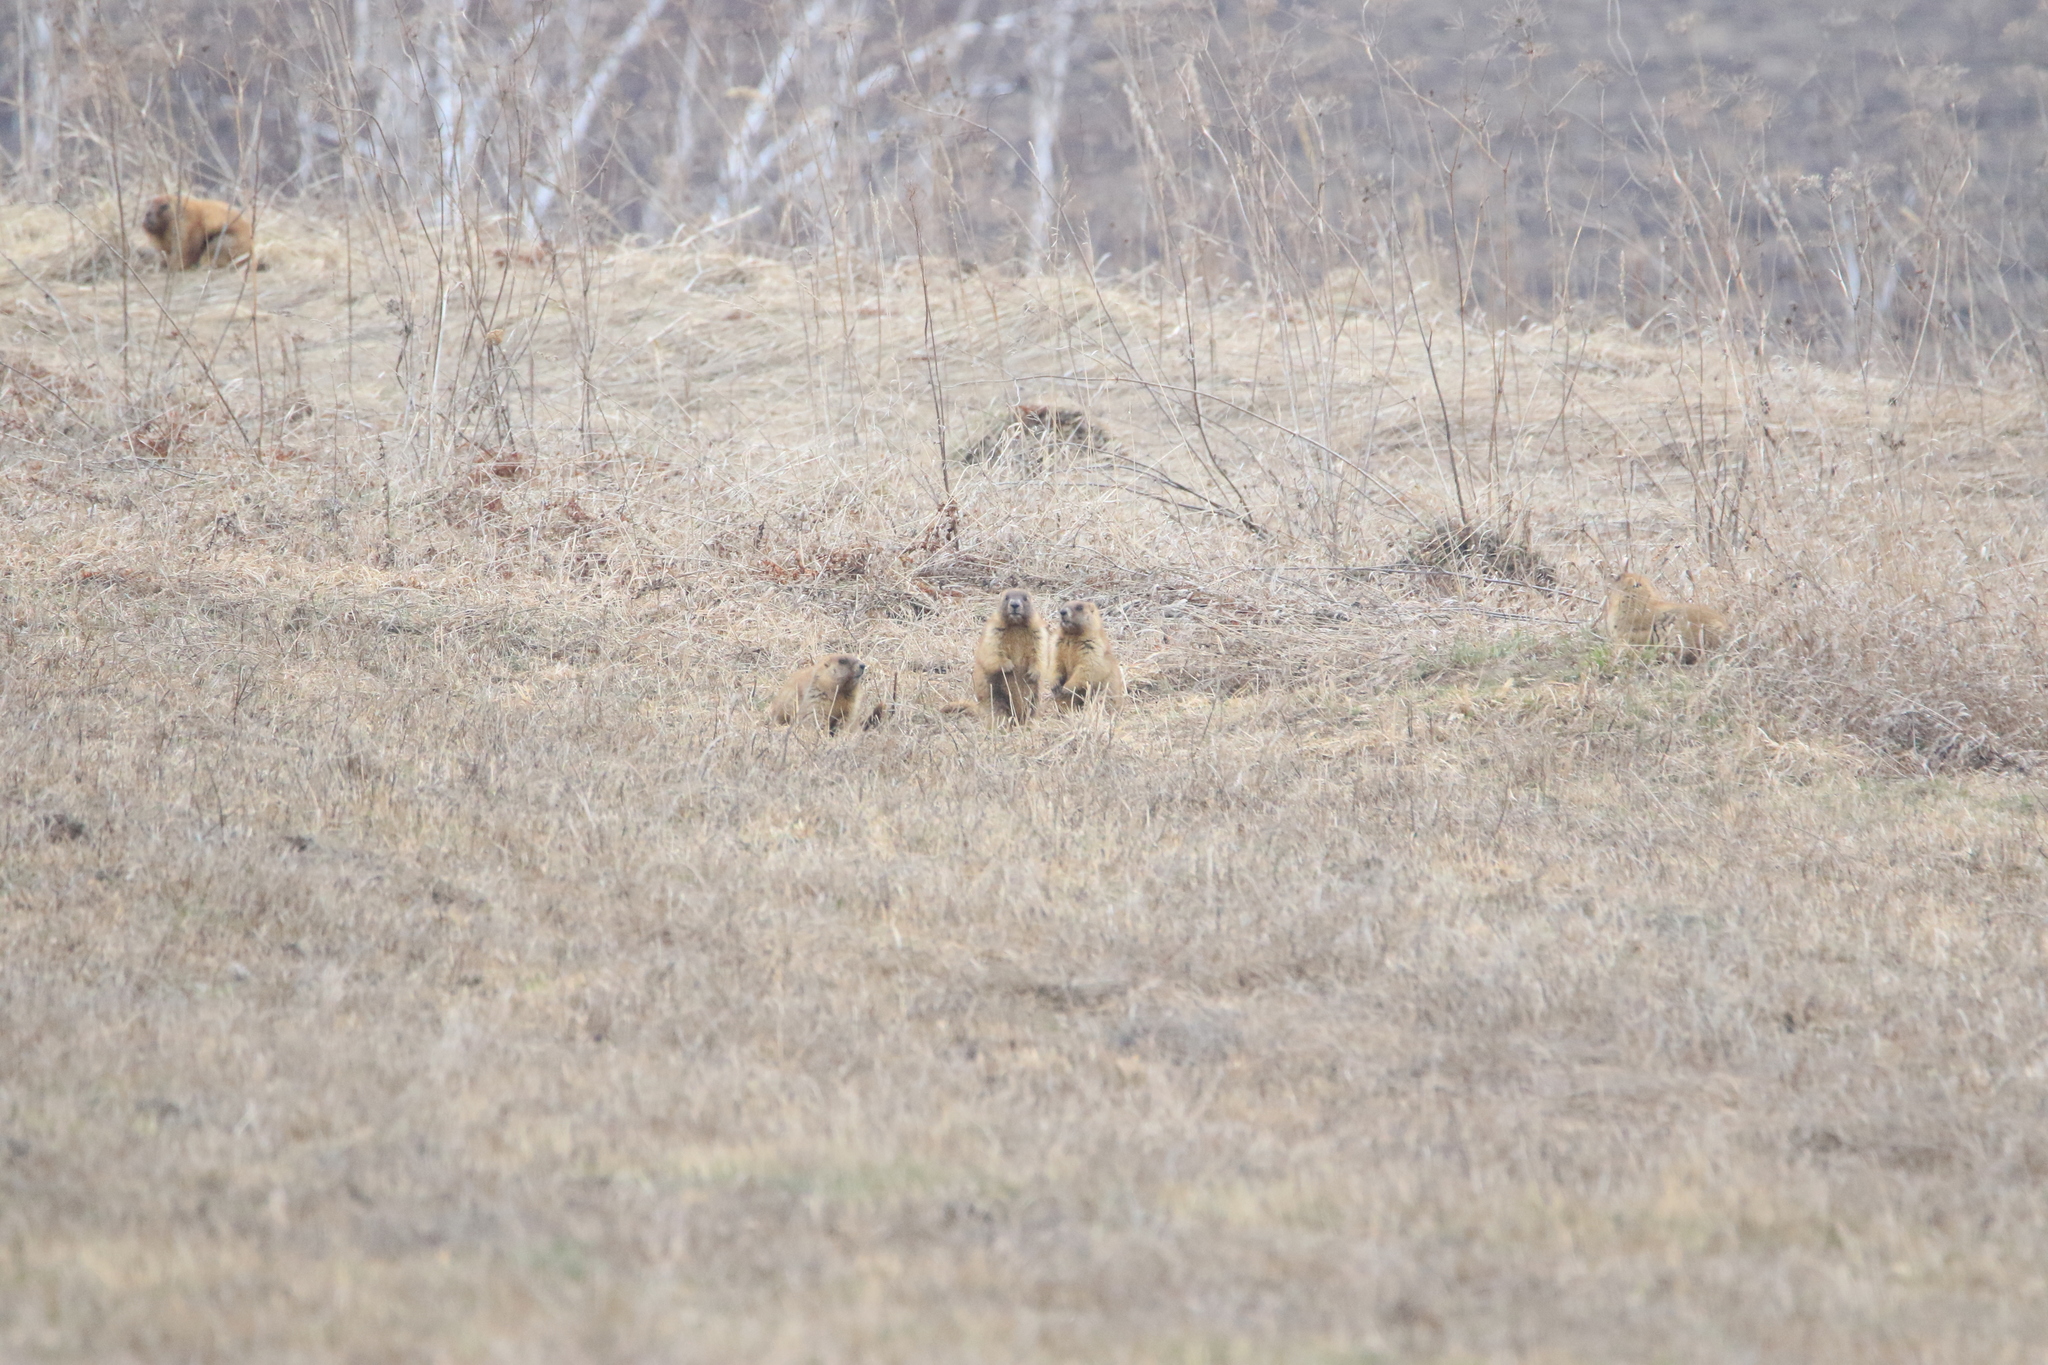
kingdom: Animalia
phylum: Chordata
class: Mammalia
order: Rodentia
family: Sciuridae
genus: Marmota
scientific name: Marmota kastschenkoi
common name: Forest steppe marmot
